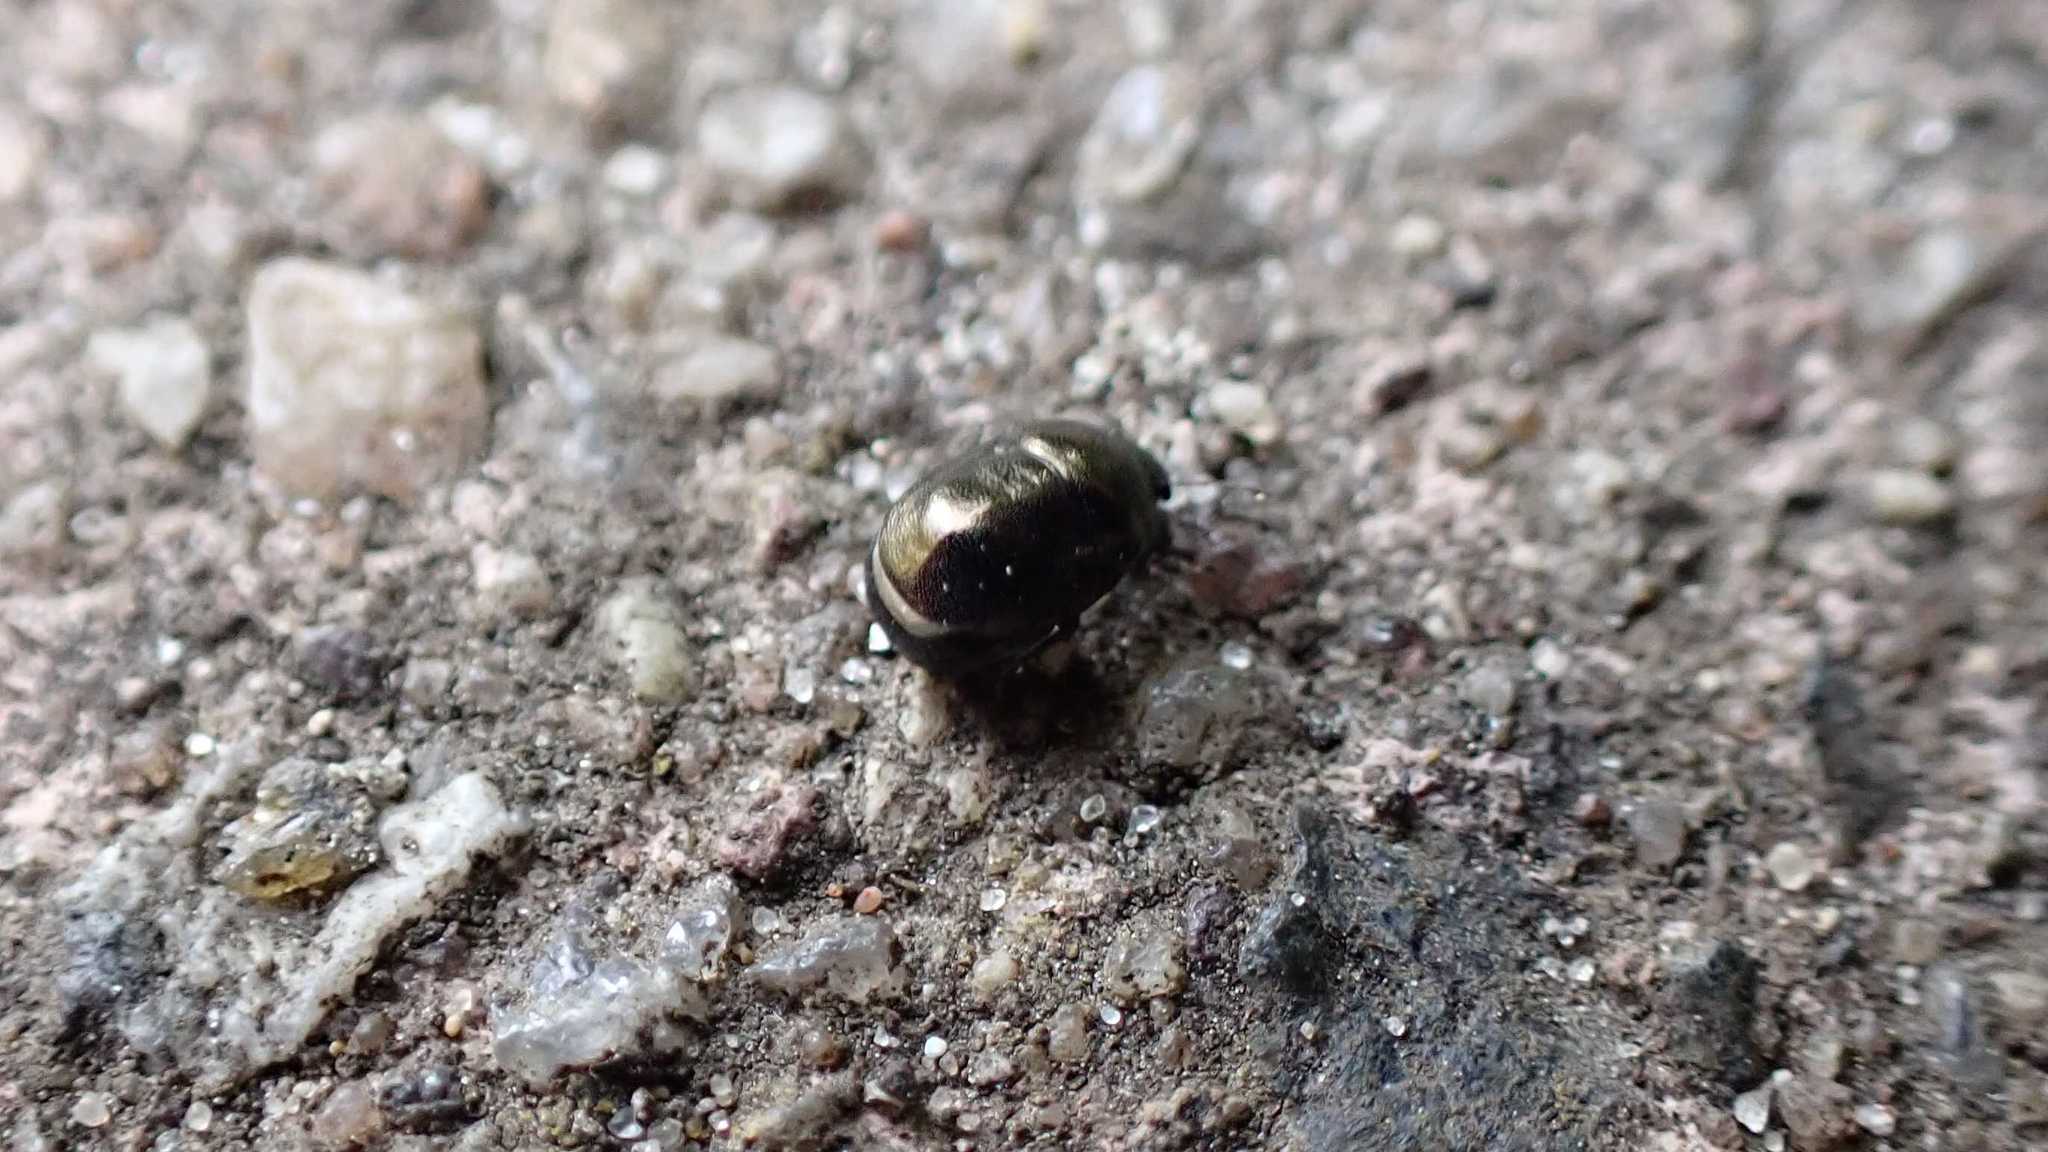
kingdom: Animalia
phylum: Arthropoda
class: Insecta
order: Hemiptera
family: Thyreocoridae
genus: Thyreocoris
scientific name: Thyreocoris scarabaeoides
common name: Negro bug
